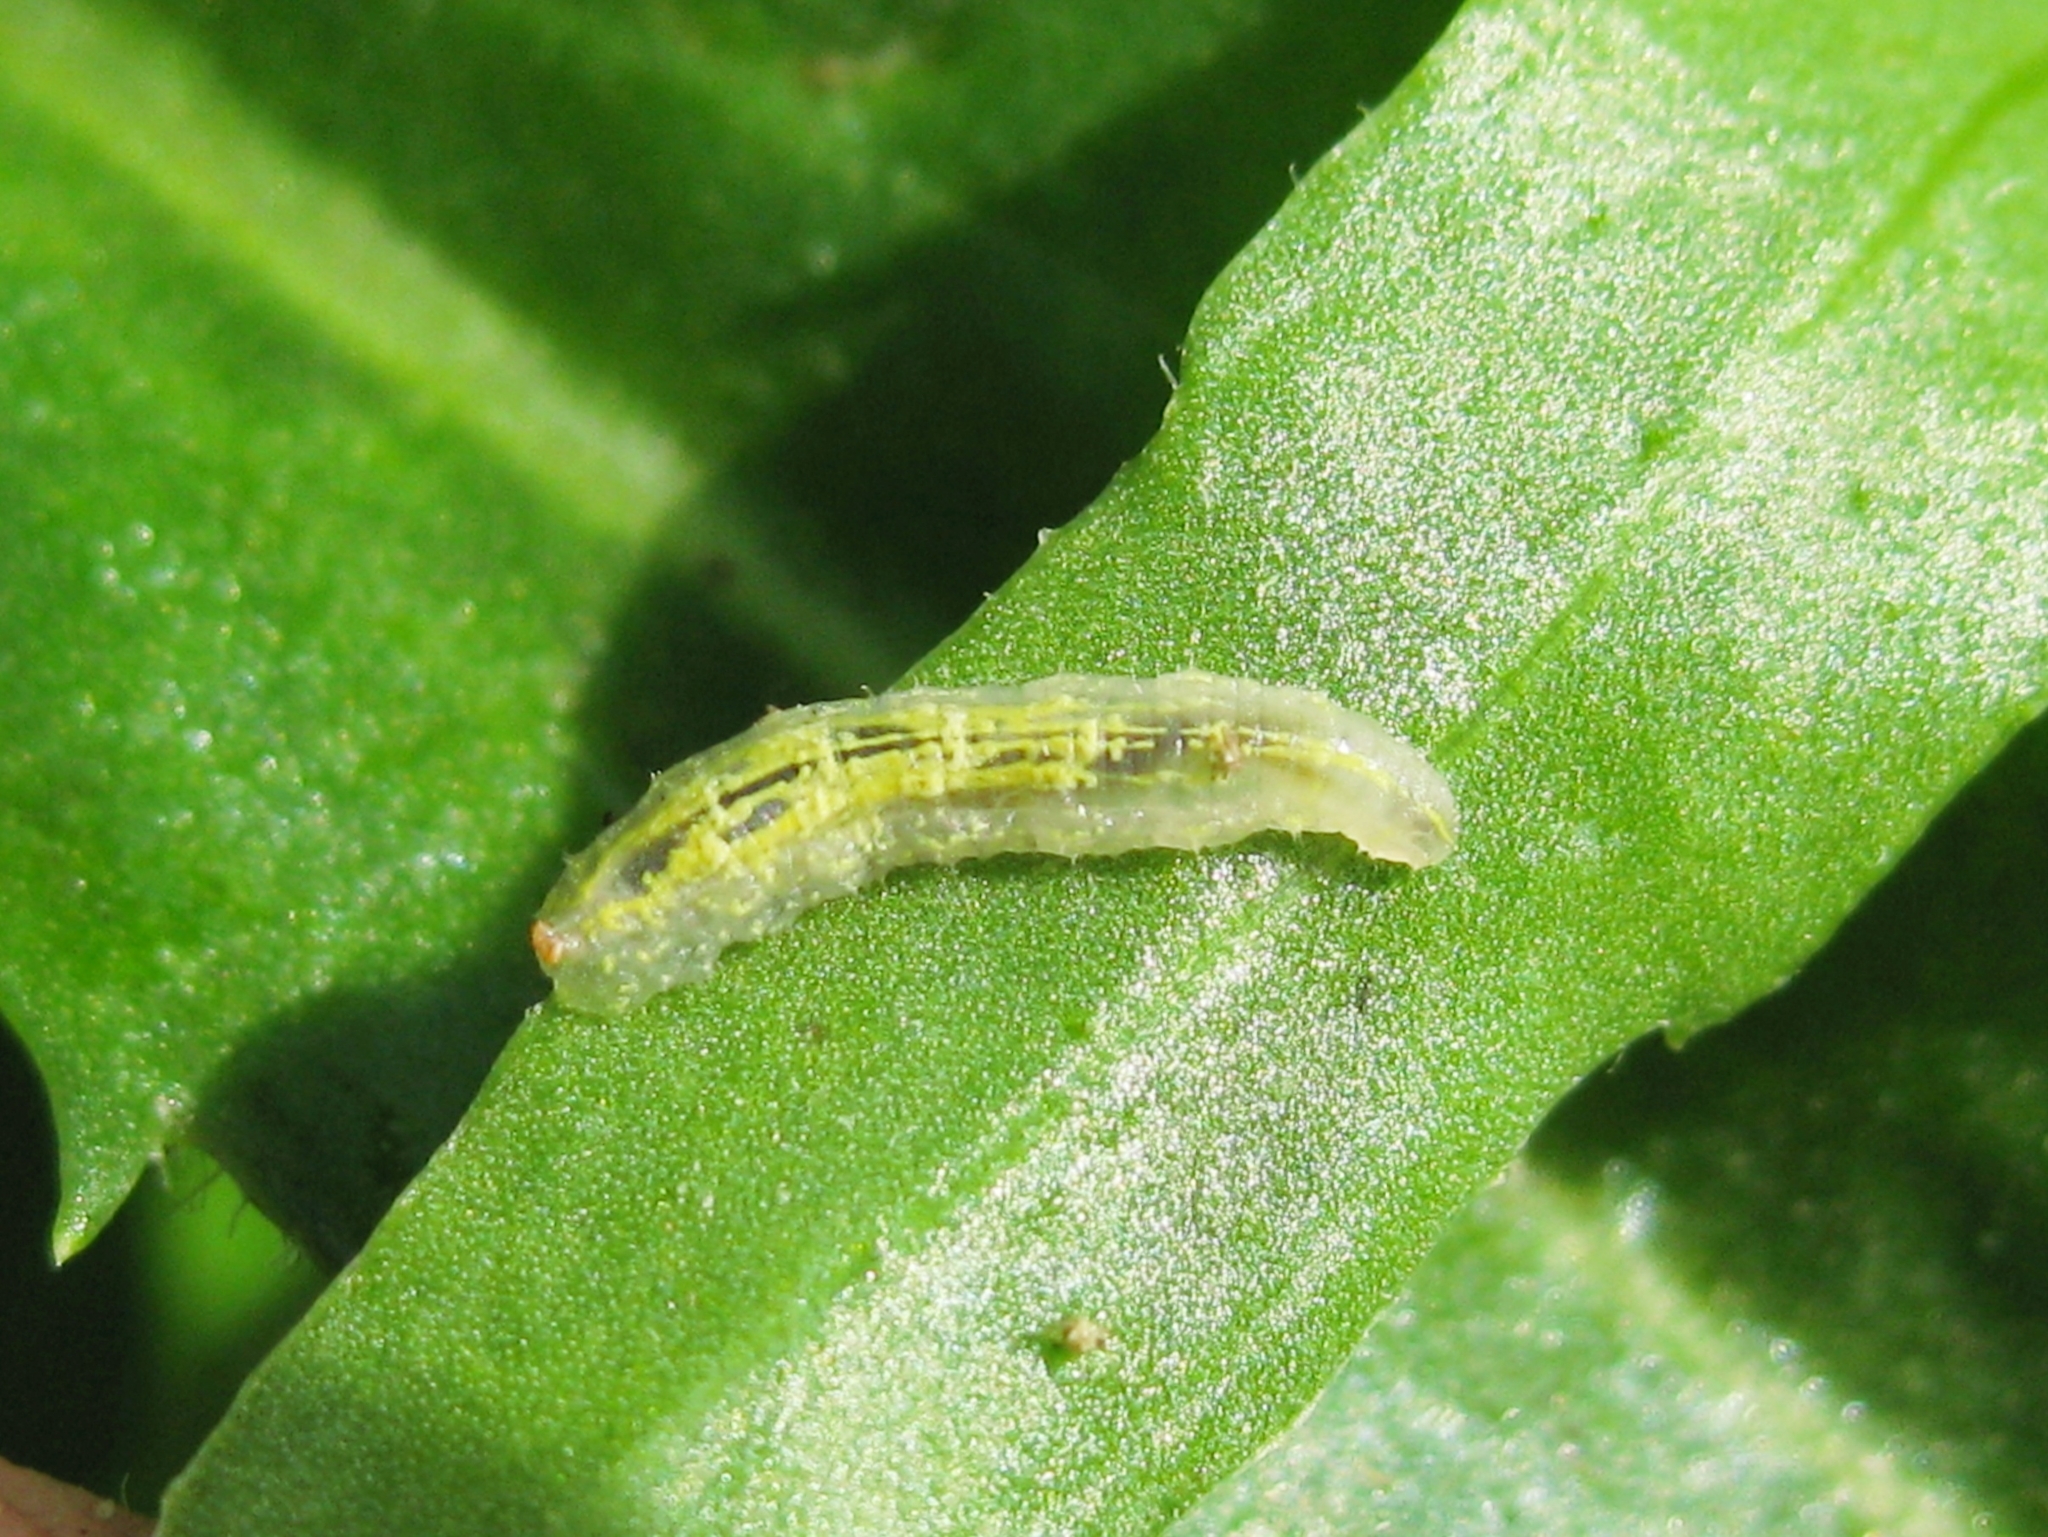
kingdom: Animalia
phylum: Arthropoda
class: Insecta
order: Diptera
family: Syrphidae
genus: Syrphus
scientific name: Syrphus
